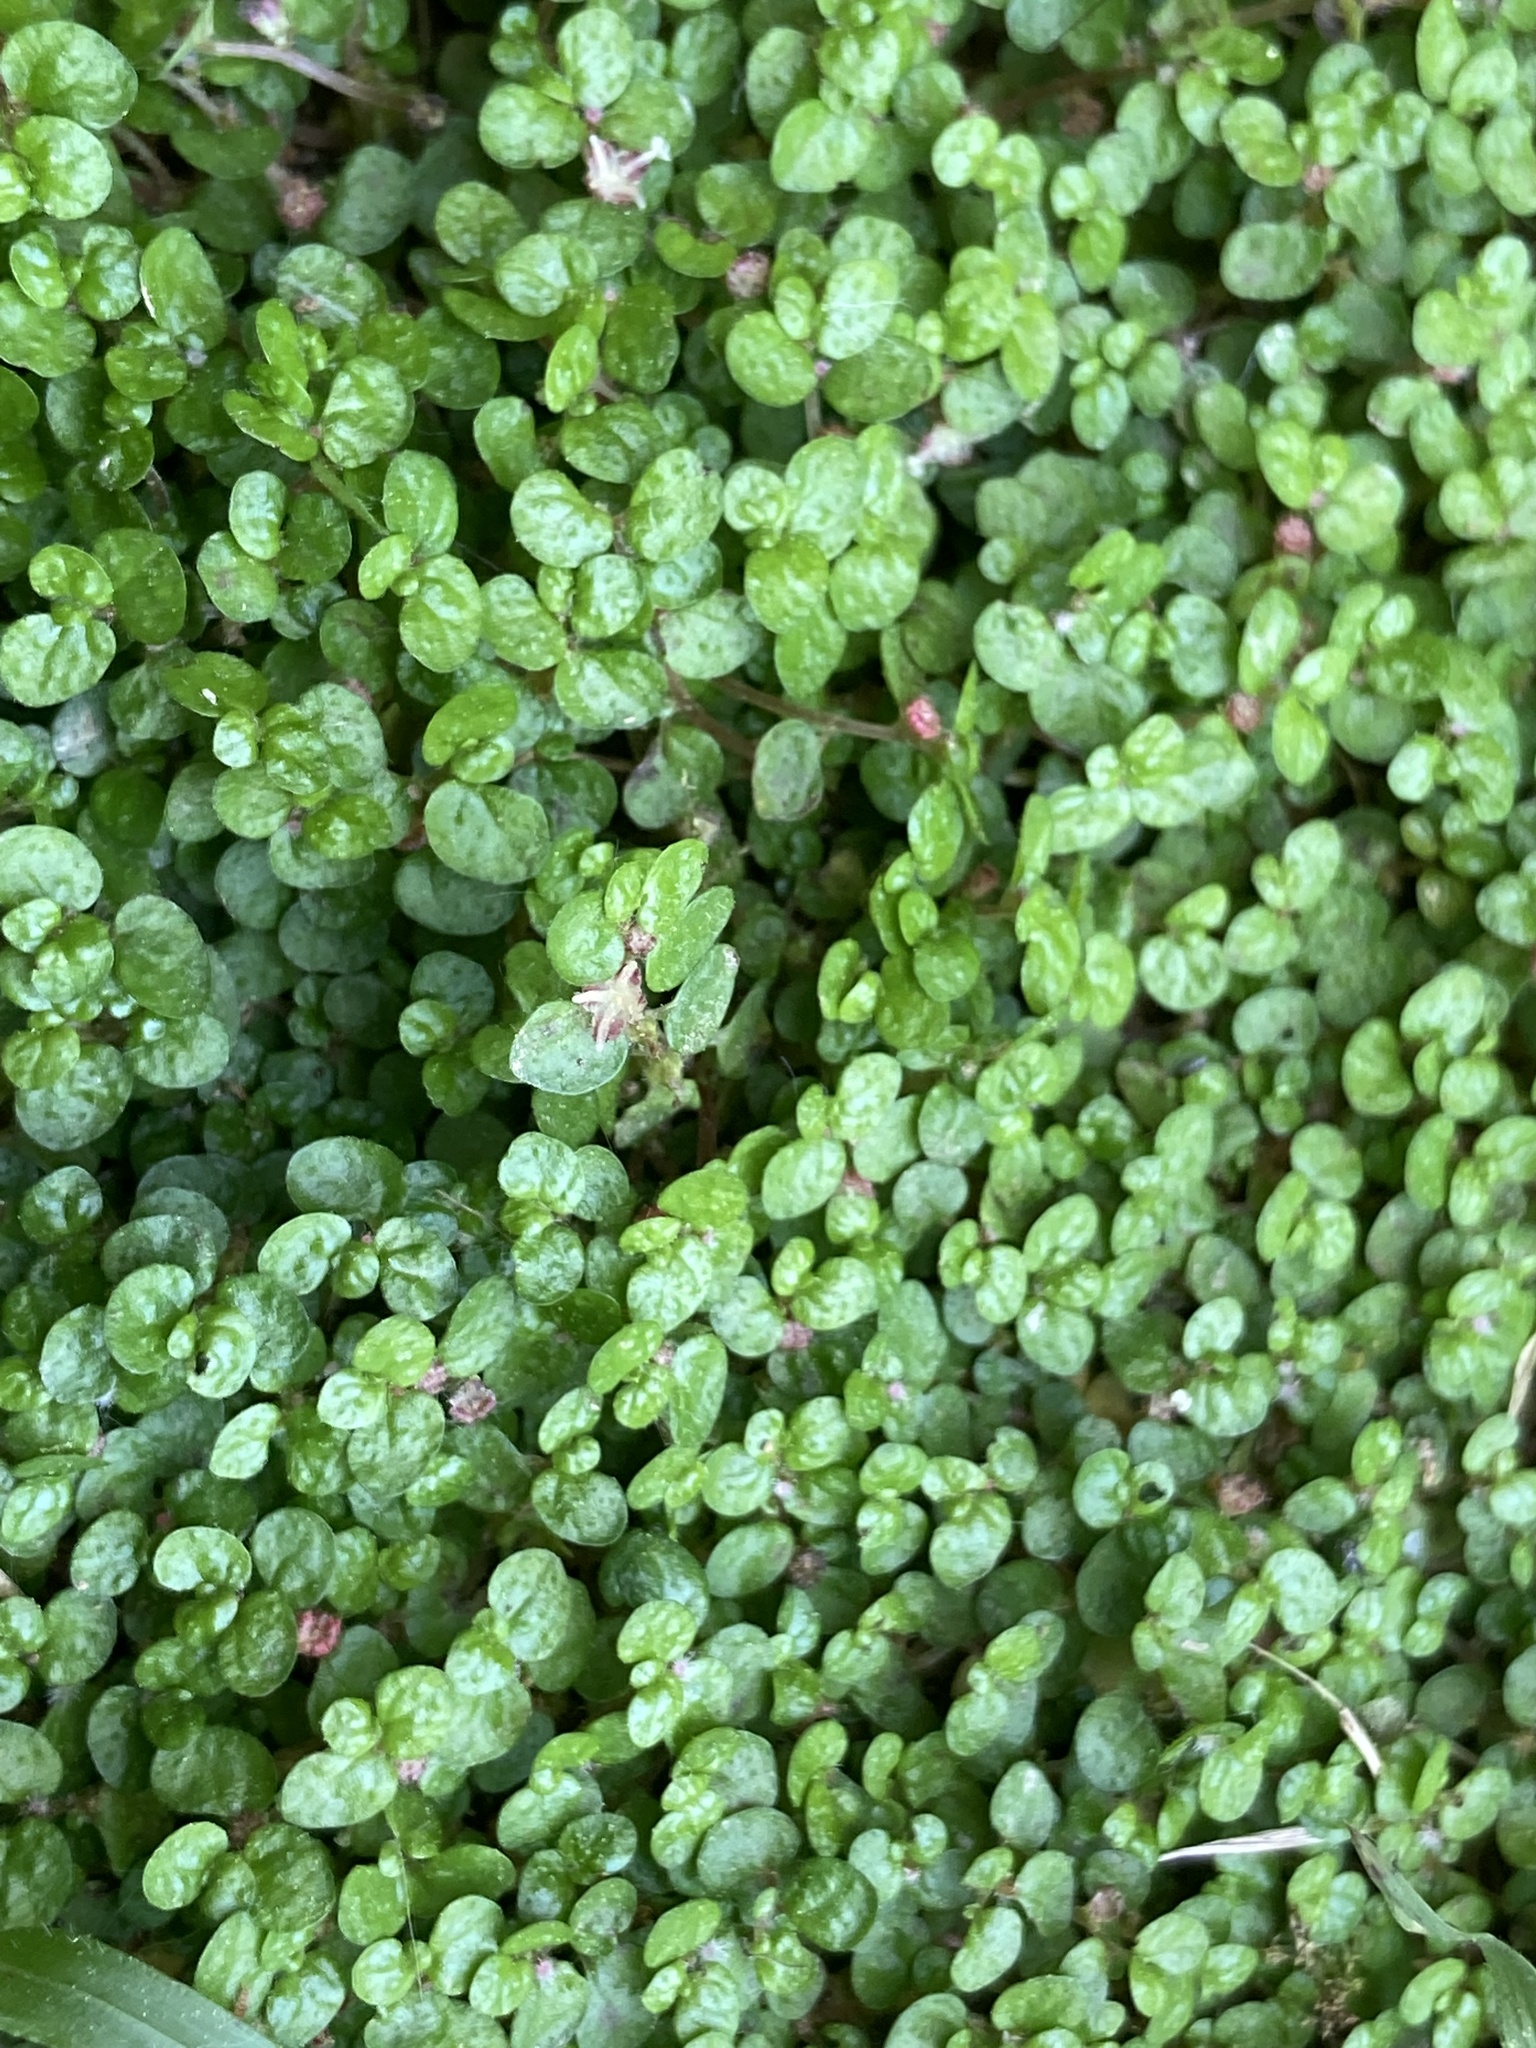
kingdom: Plantae
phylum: Tracheophyta
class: Magnoliopsida
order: Rosales
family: Urticaceae
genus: Soleirolia
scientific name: Soleirolia soleirolii
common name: Mind-your-own-business
